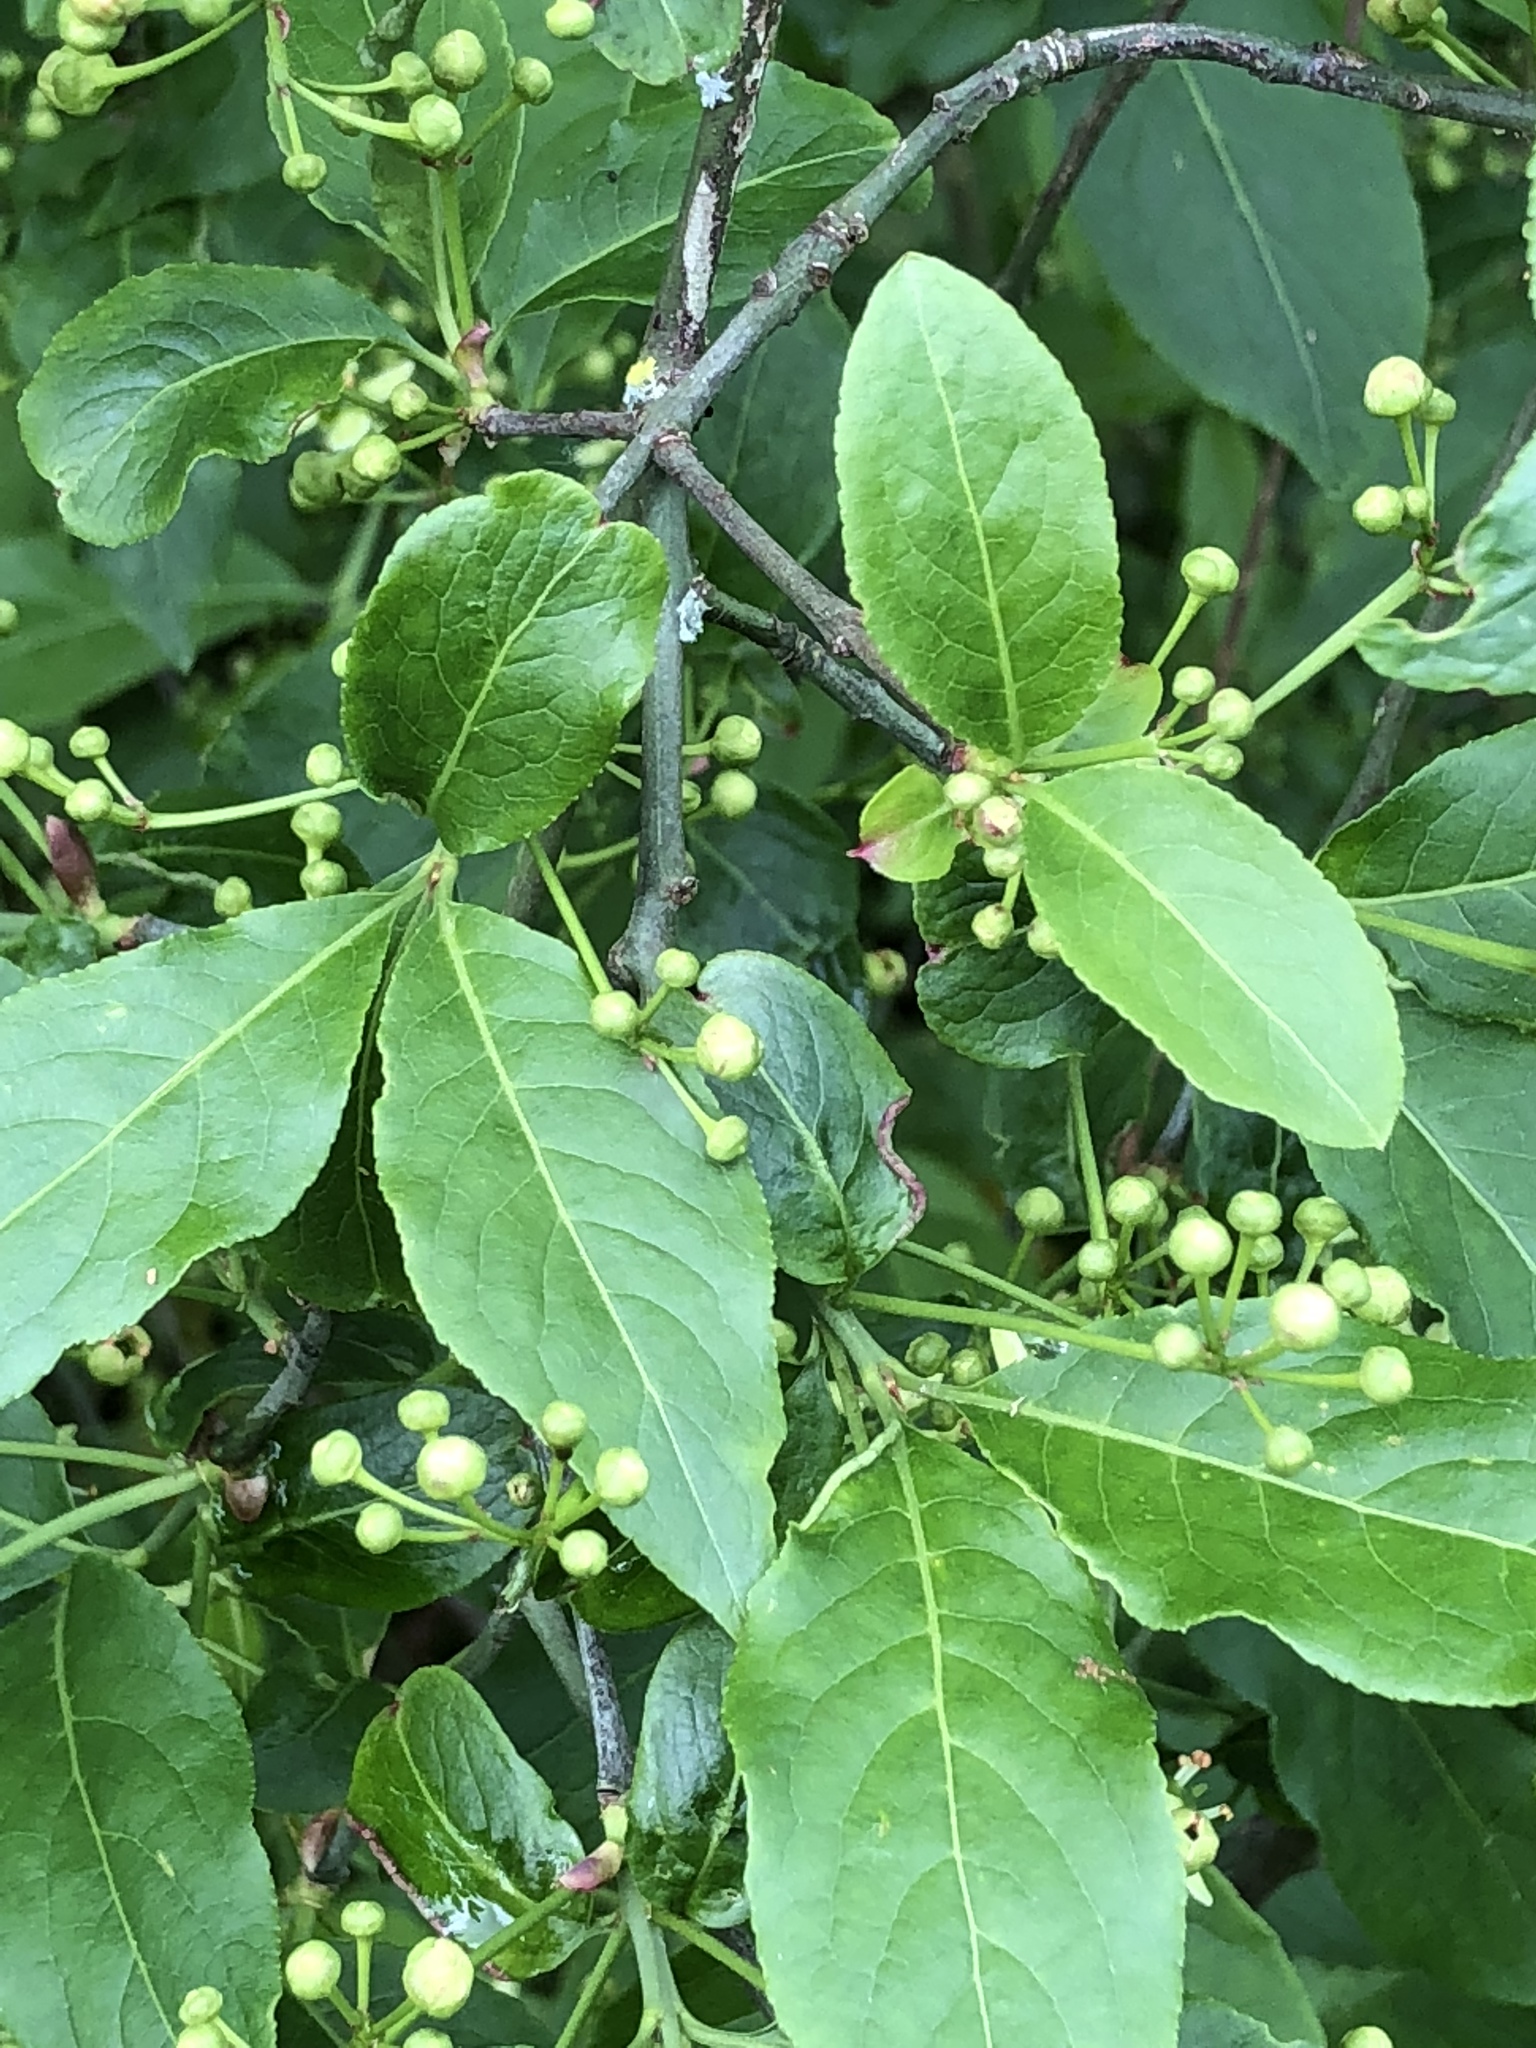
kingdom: Plantae
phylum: Tracheophyta
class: Magnoliopsida
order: Celastrales
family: Celastraceae
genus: Euonymus
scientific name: Euonymus europaeus
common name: Spindle
